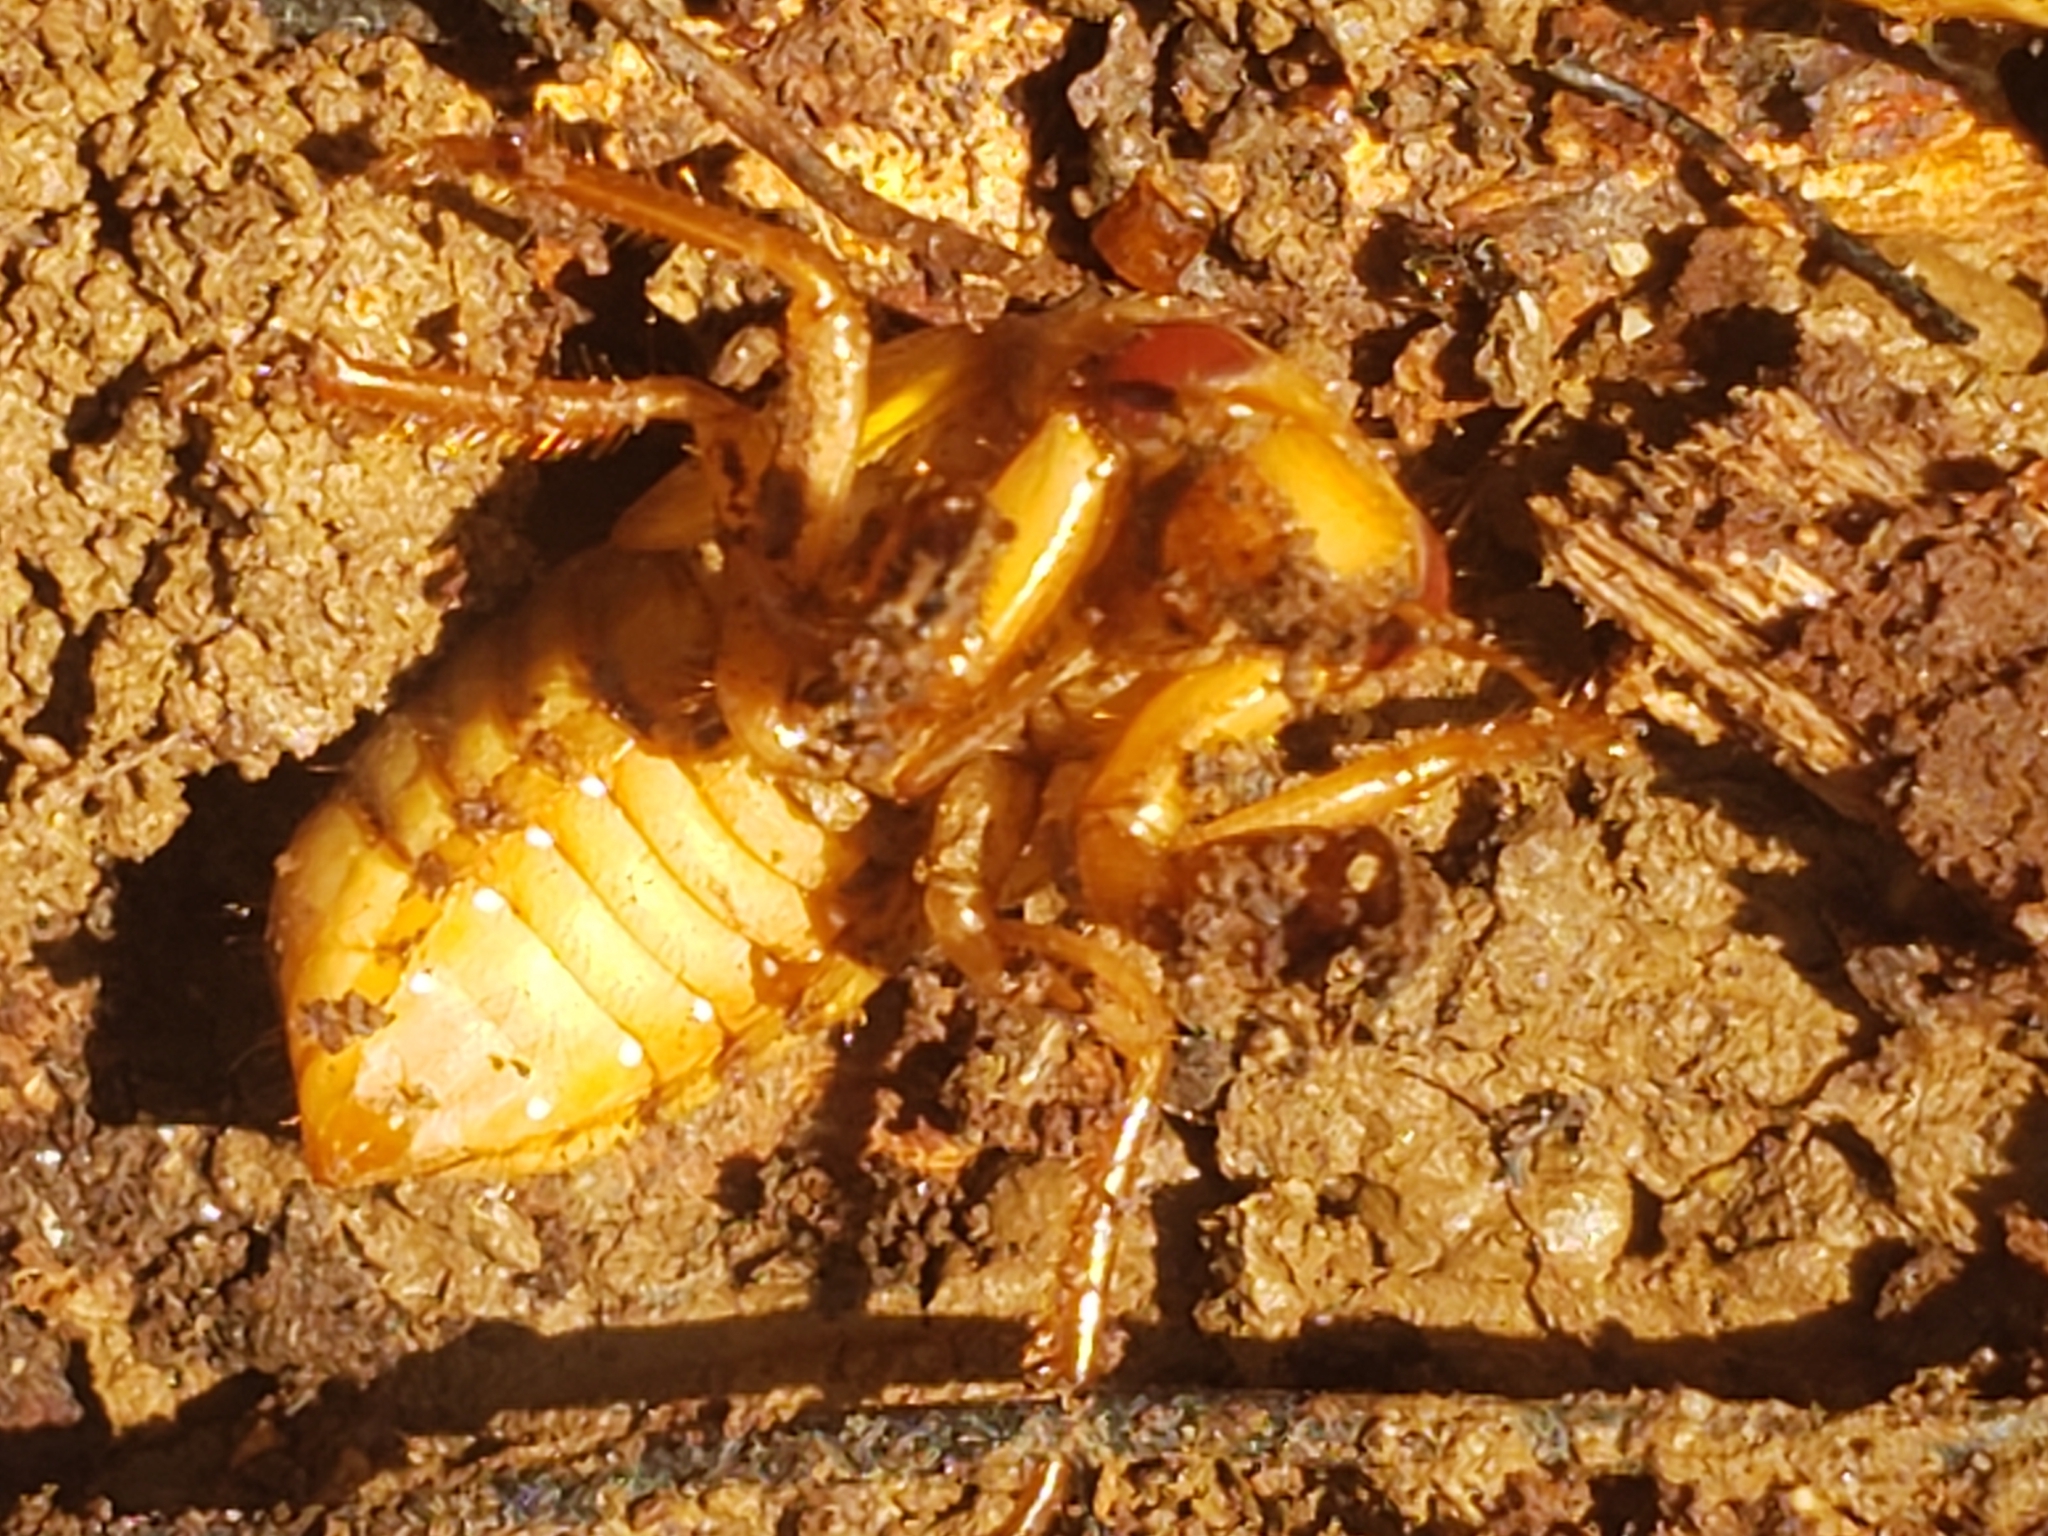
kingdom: Animalia
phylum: Arthropoda
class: Insecta
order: Hemiptera
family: Cicadidae
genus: Magicicada
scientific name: Magicicada
